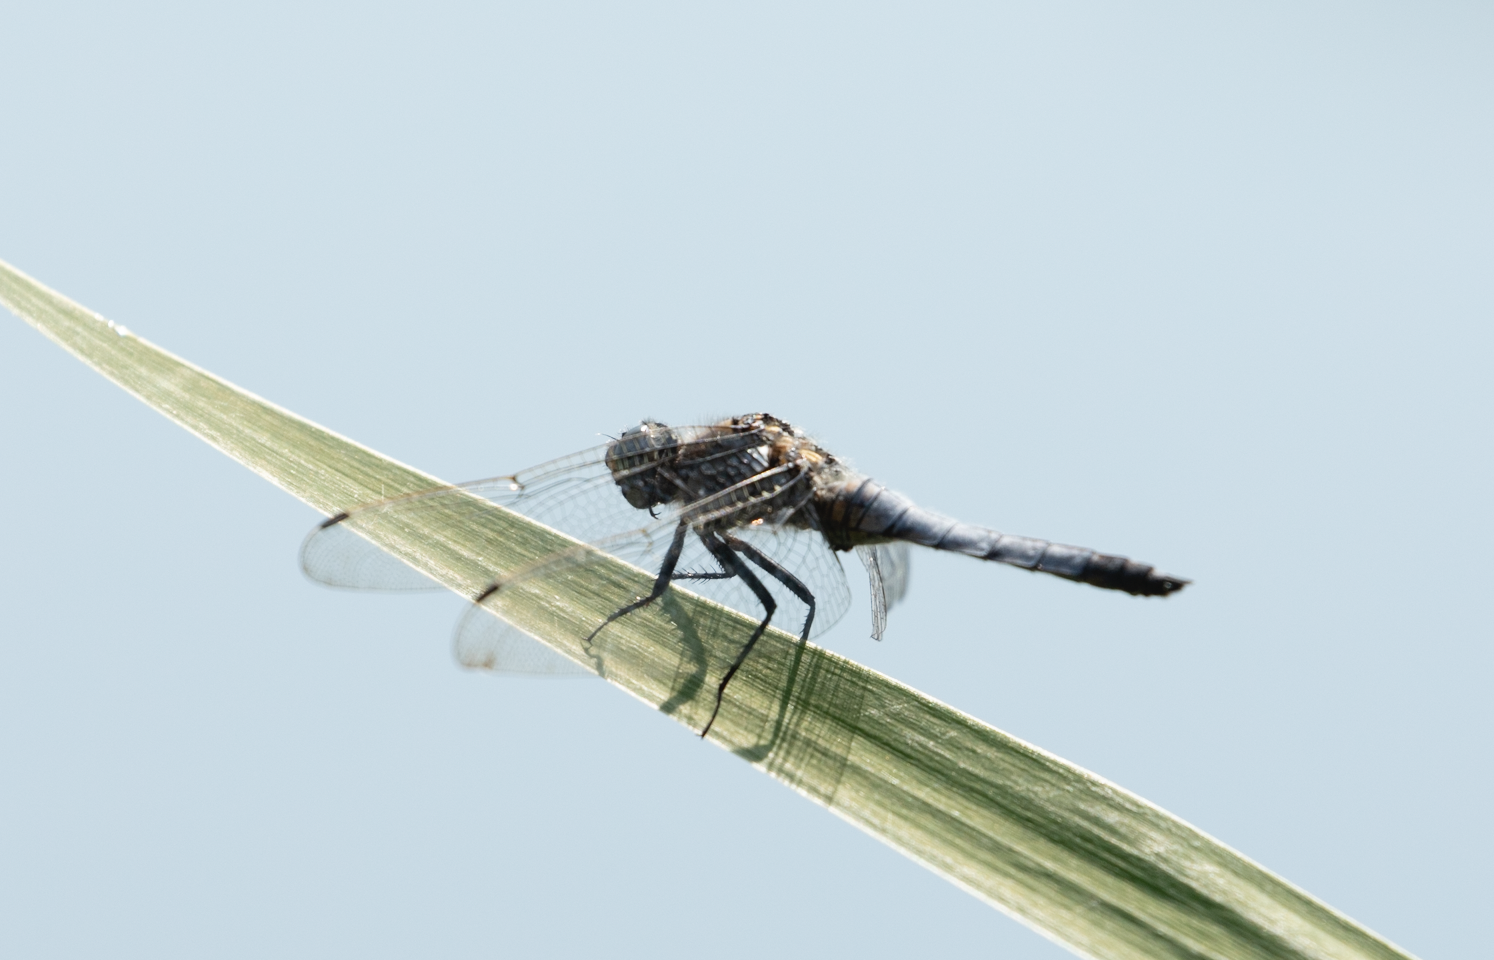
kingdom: Animalia
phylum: Arthropoda
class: Insecta
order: Odonata
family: Libellulidae
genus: Orthetrum
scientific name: Orthetrum cancellatum
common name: Black-tailed skimmer
